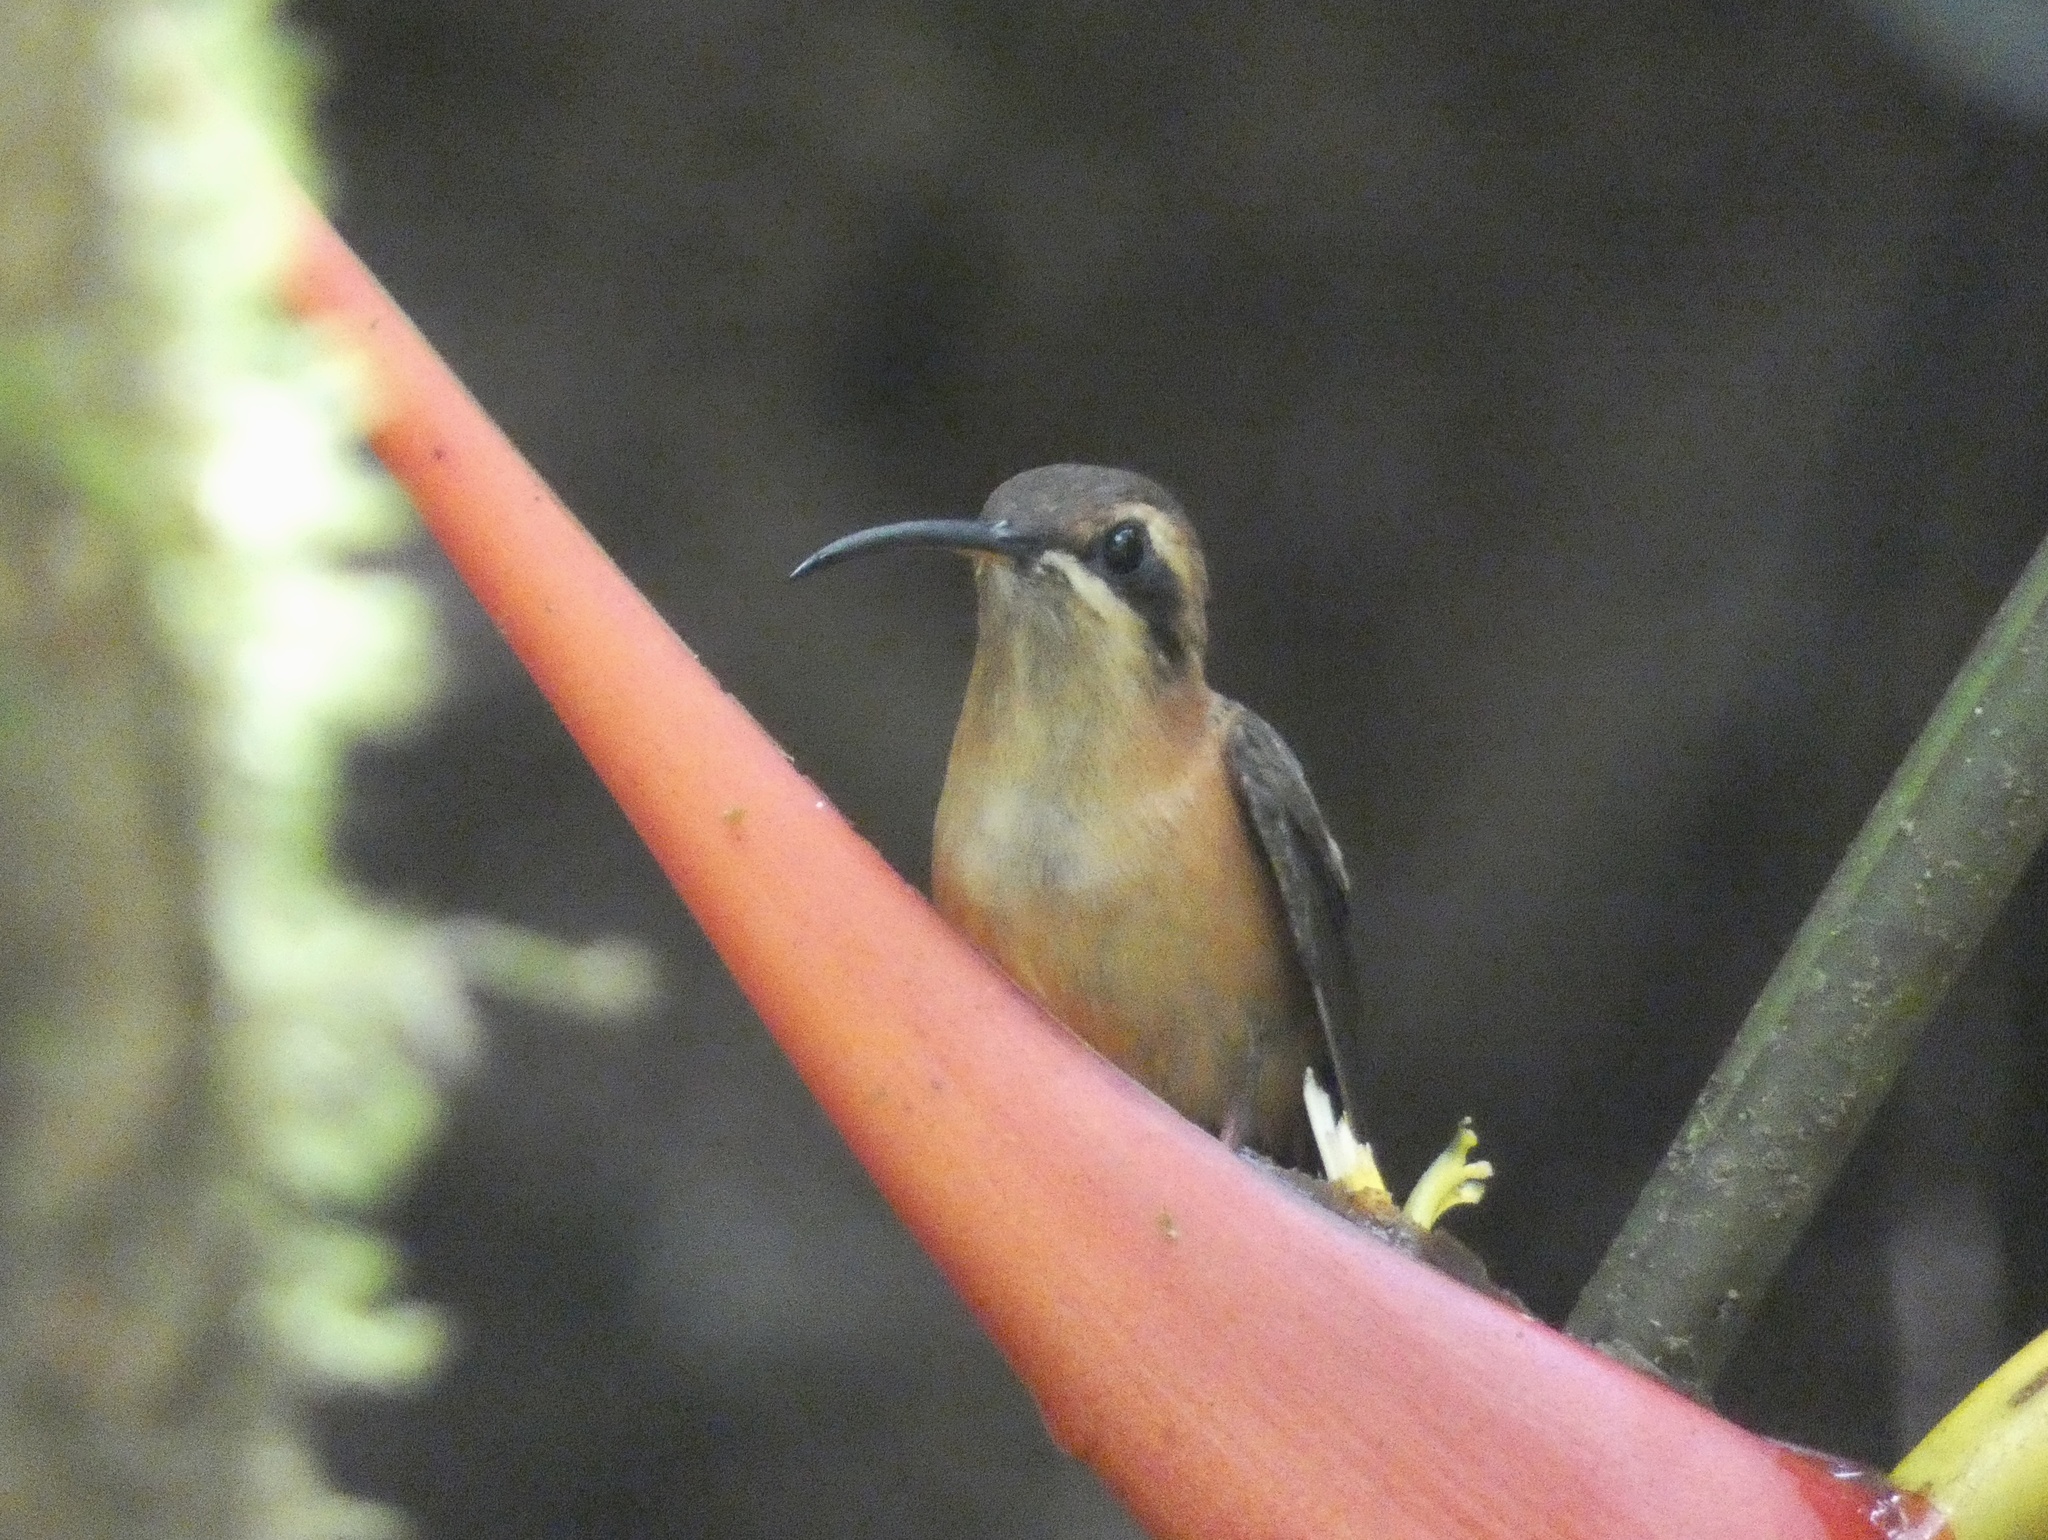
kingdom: Animalia
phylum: Chordata
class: Aves
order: Apodiformes
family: Trochilidae
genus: Phaethornis
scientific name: Phaethornis striigularis
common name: Stripe-throated hermit
